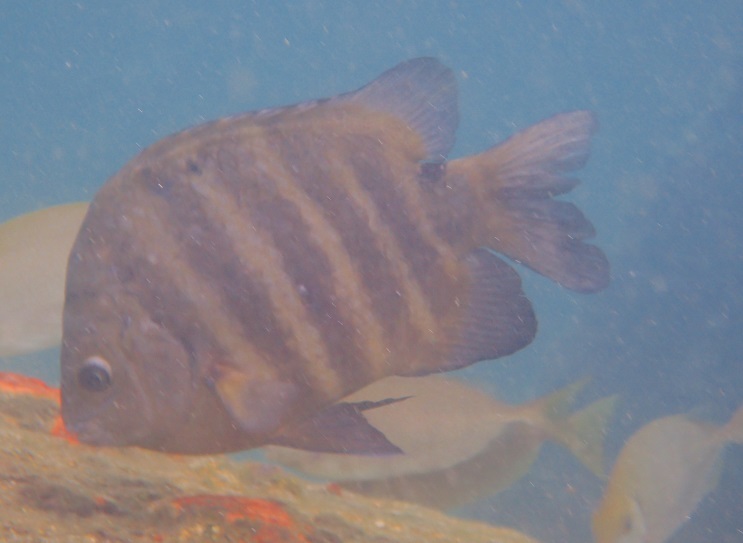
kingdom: Animalia
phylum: Chordata
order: Perciformes
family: Pomacentridae
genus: Abudefduf
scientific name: Abudefduf sordidus
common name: Blackspot sergeant
